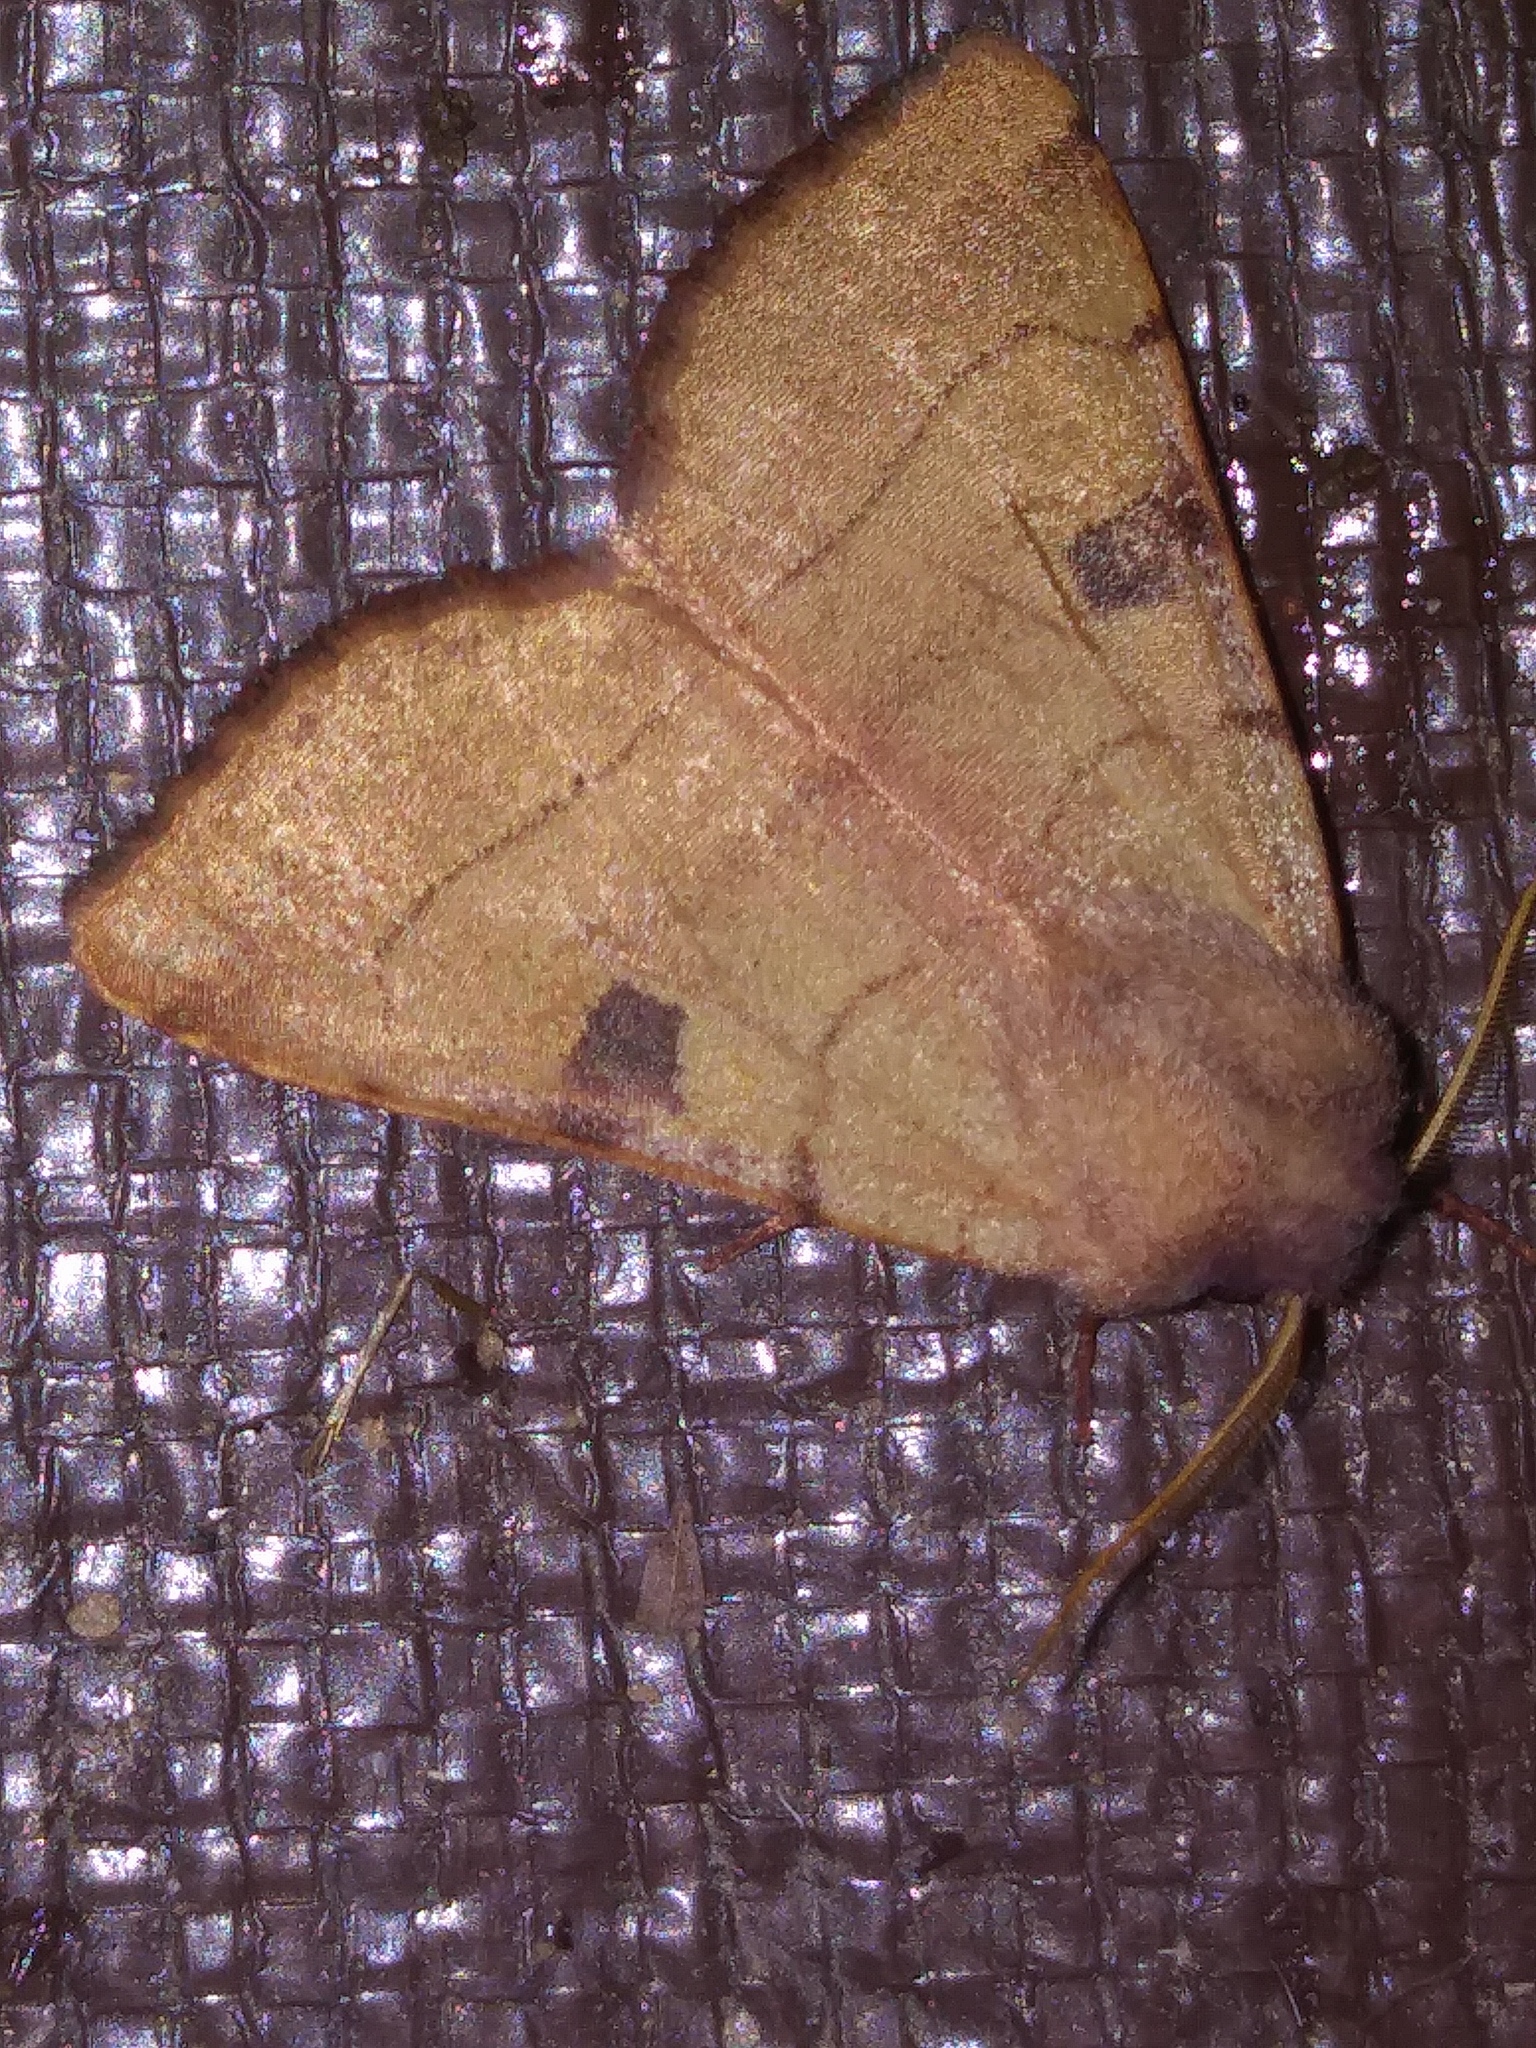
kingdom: Animalia
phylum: Arthropoda
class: Insecta
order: Lepidoptera
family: Noctuidae
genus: Choephora
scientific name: Choephora fungorum
